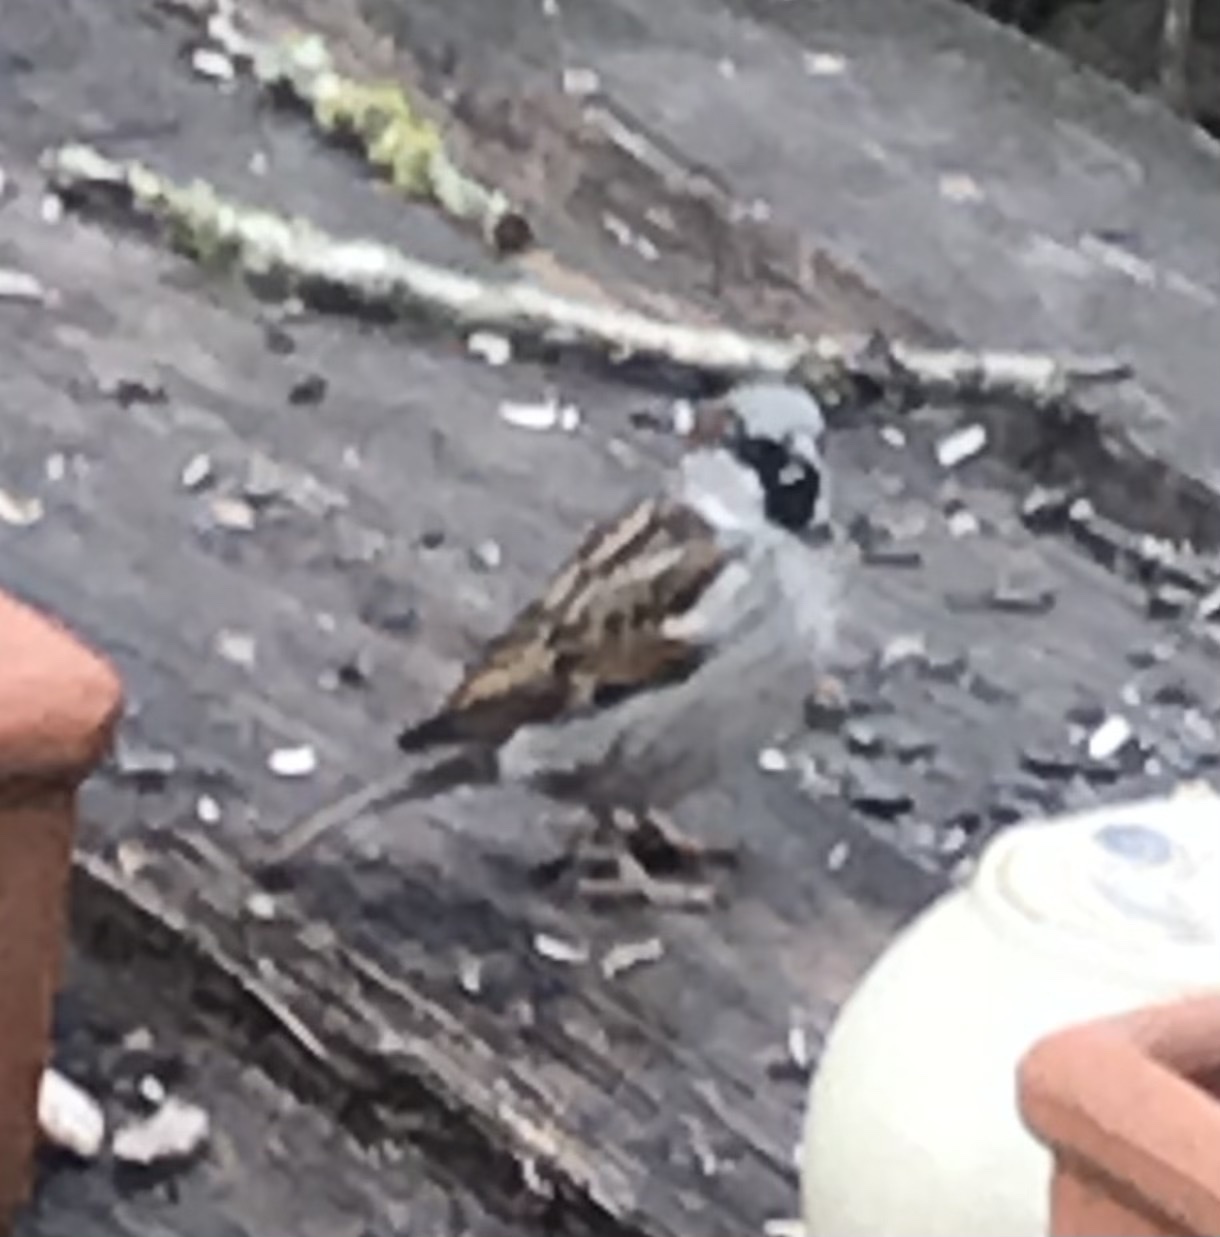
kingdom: Animalia
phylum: Chordata
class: Aves
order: Passeriformes
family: Passeridae
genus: Passer
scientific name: Passer domesticus
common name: House sparrow
